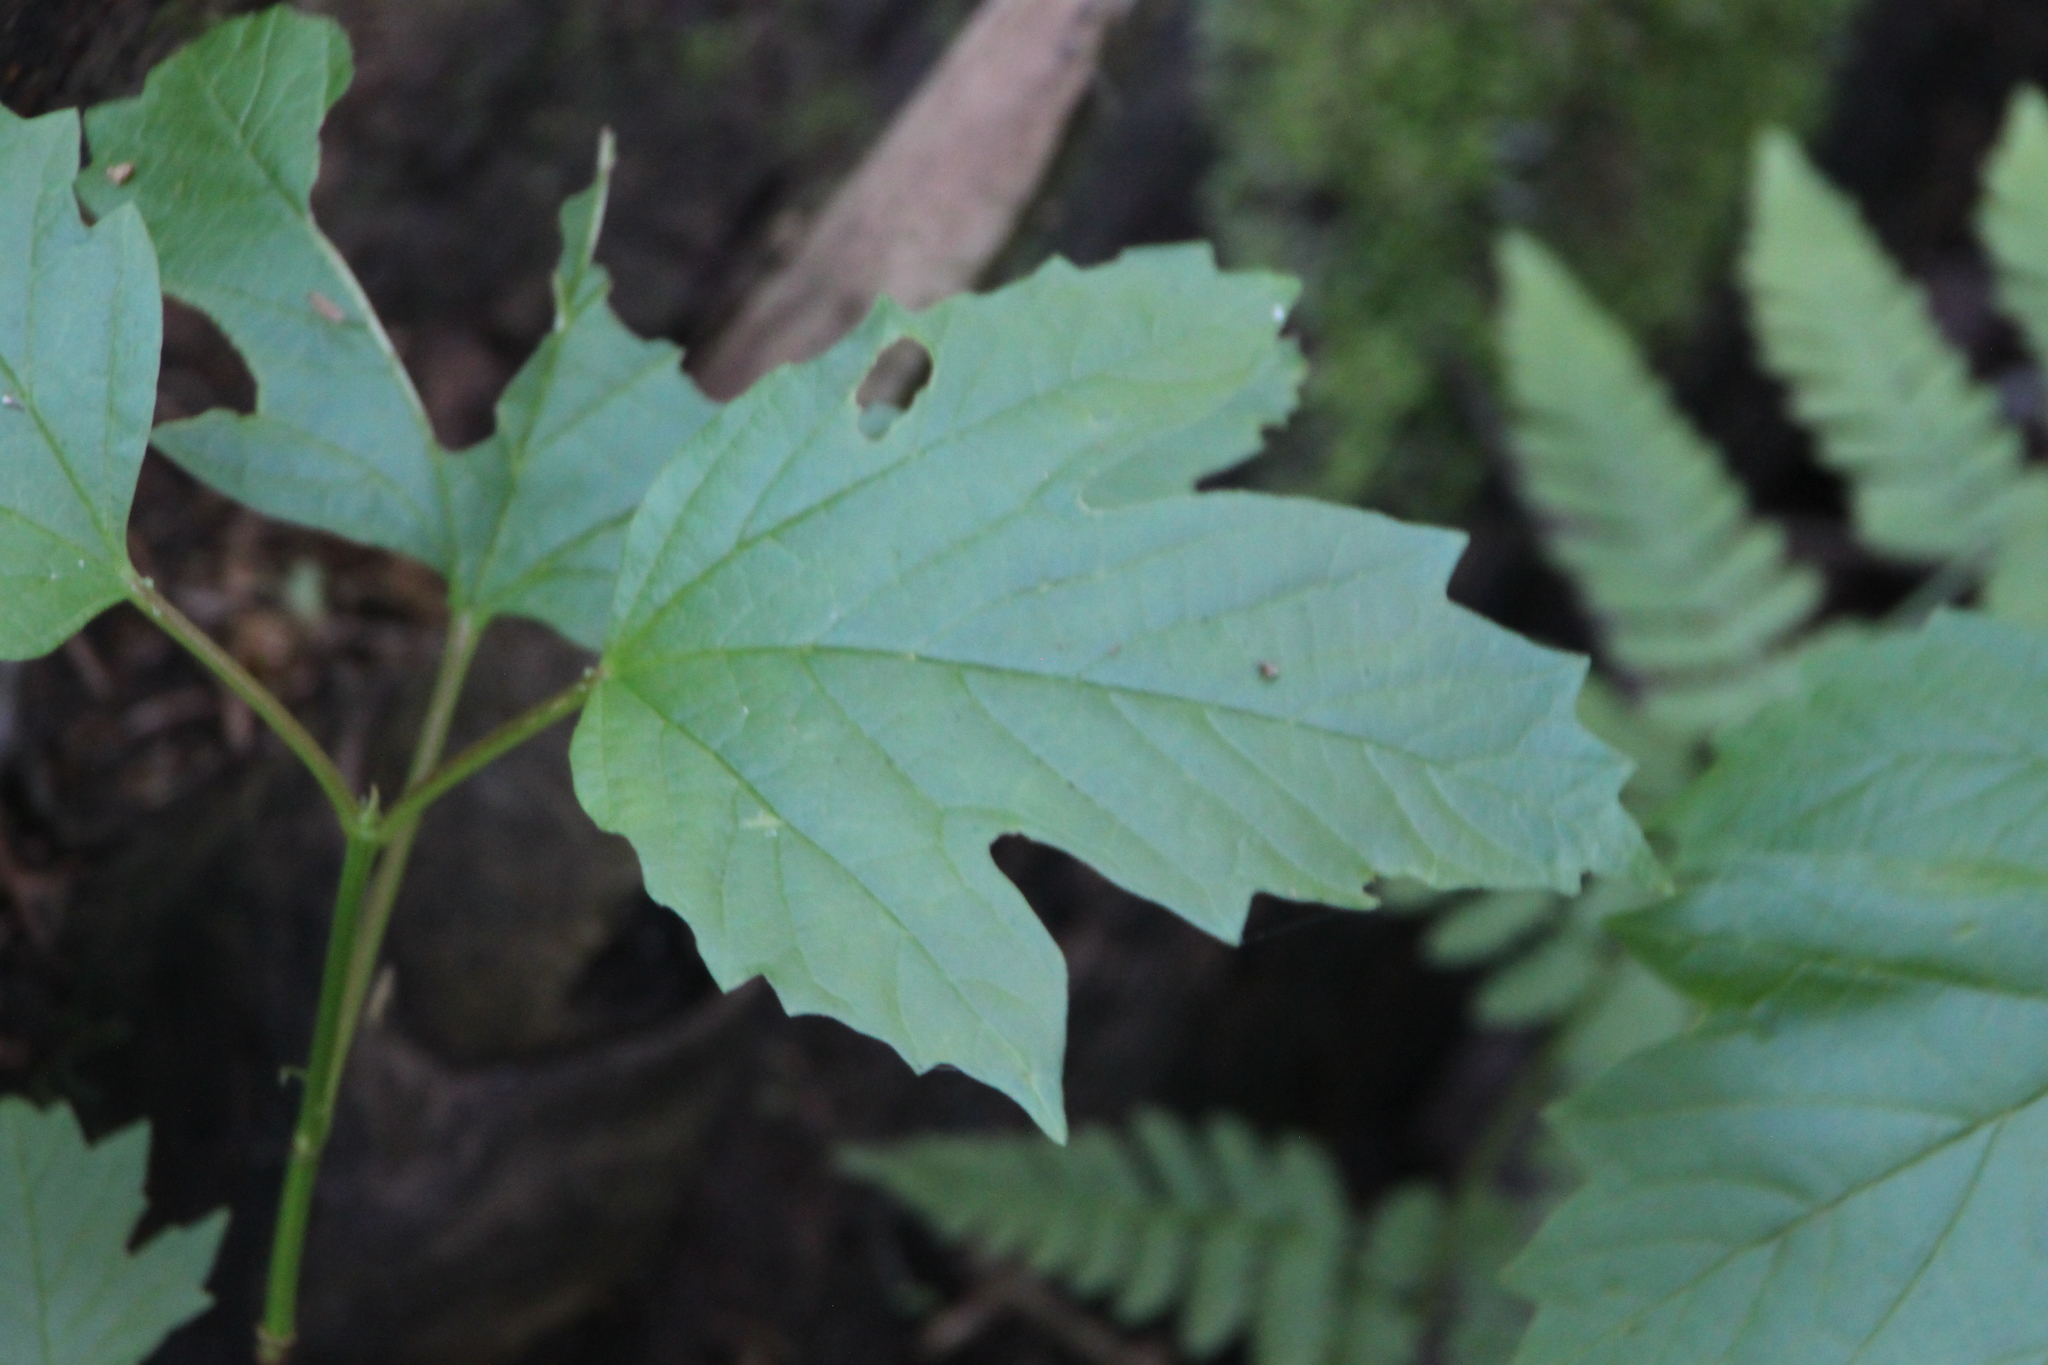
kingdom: Plantae
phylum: Tracheophyta
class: Magnoliopsida
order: Dipsacales
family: Viburnaceae
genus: Viburnum
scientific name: Viburnum opulus
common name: Guelder-rose
